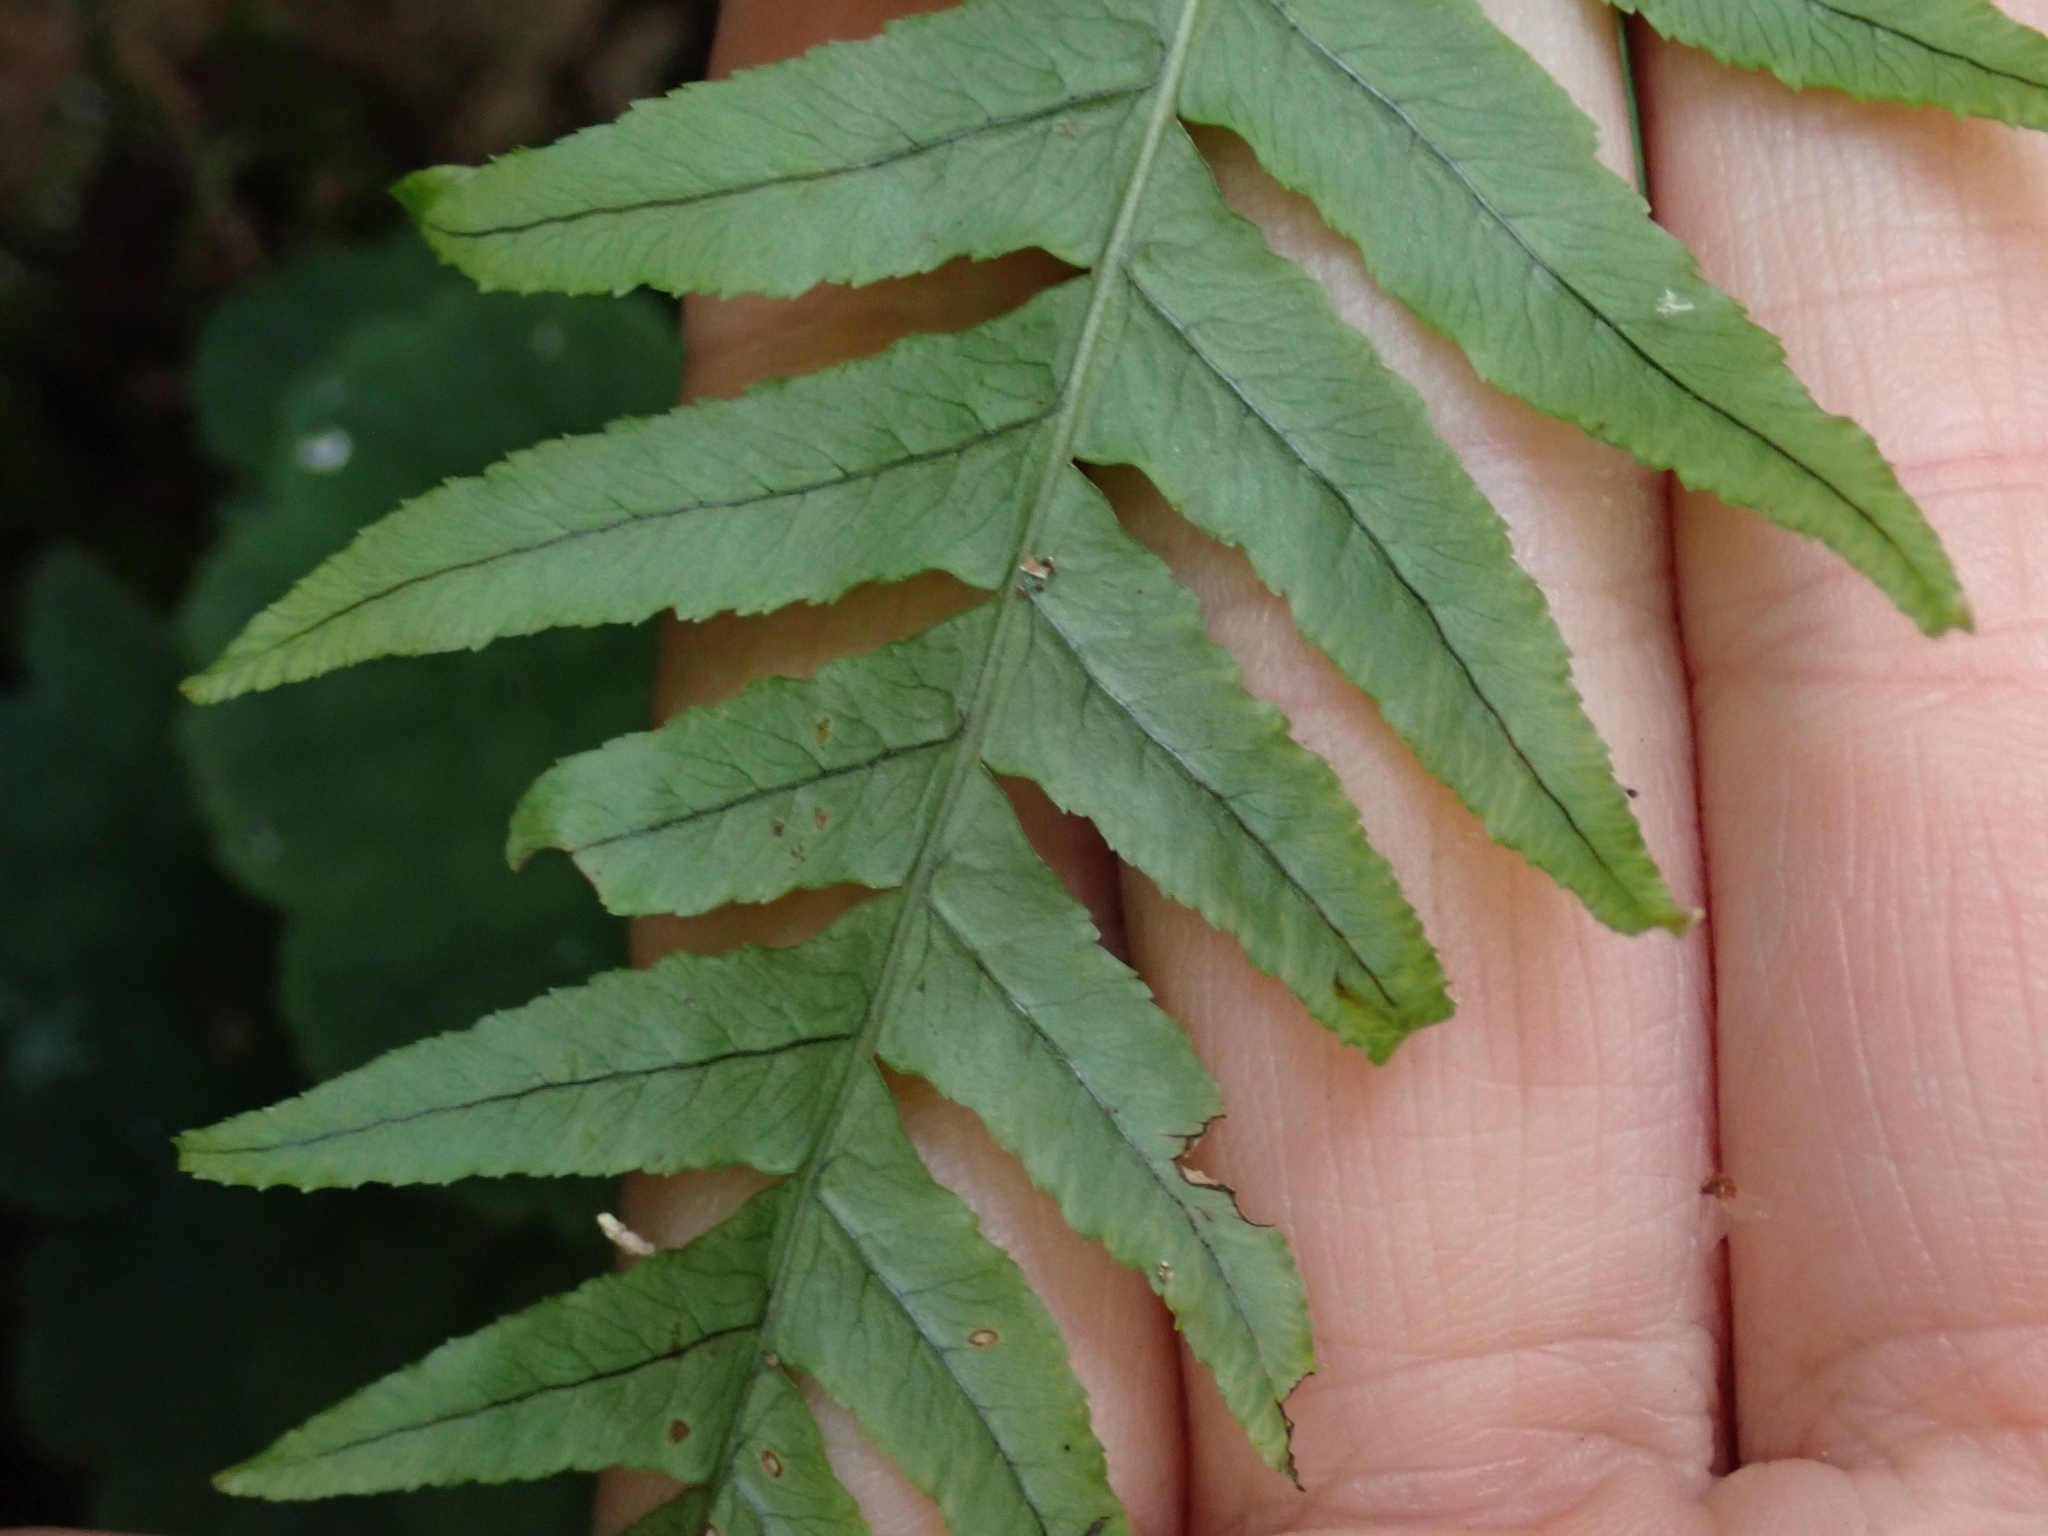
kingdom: Plantae
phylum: Tracheophyta
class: Polypodiopsida
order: Polypodiales
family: Polypodiaceae
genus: Polypodium
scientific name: Polypodium glycyrrhiza
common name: Licorice fern
